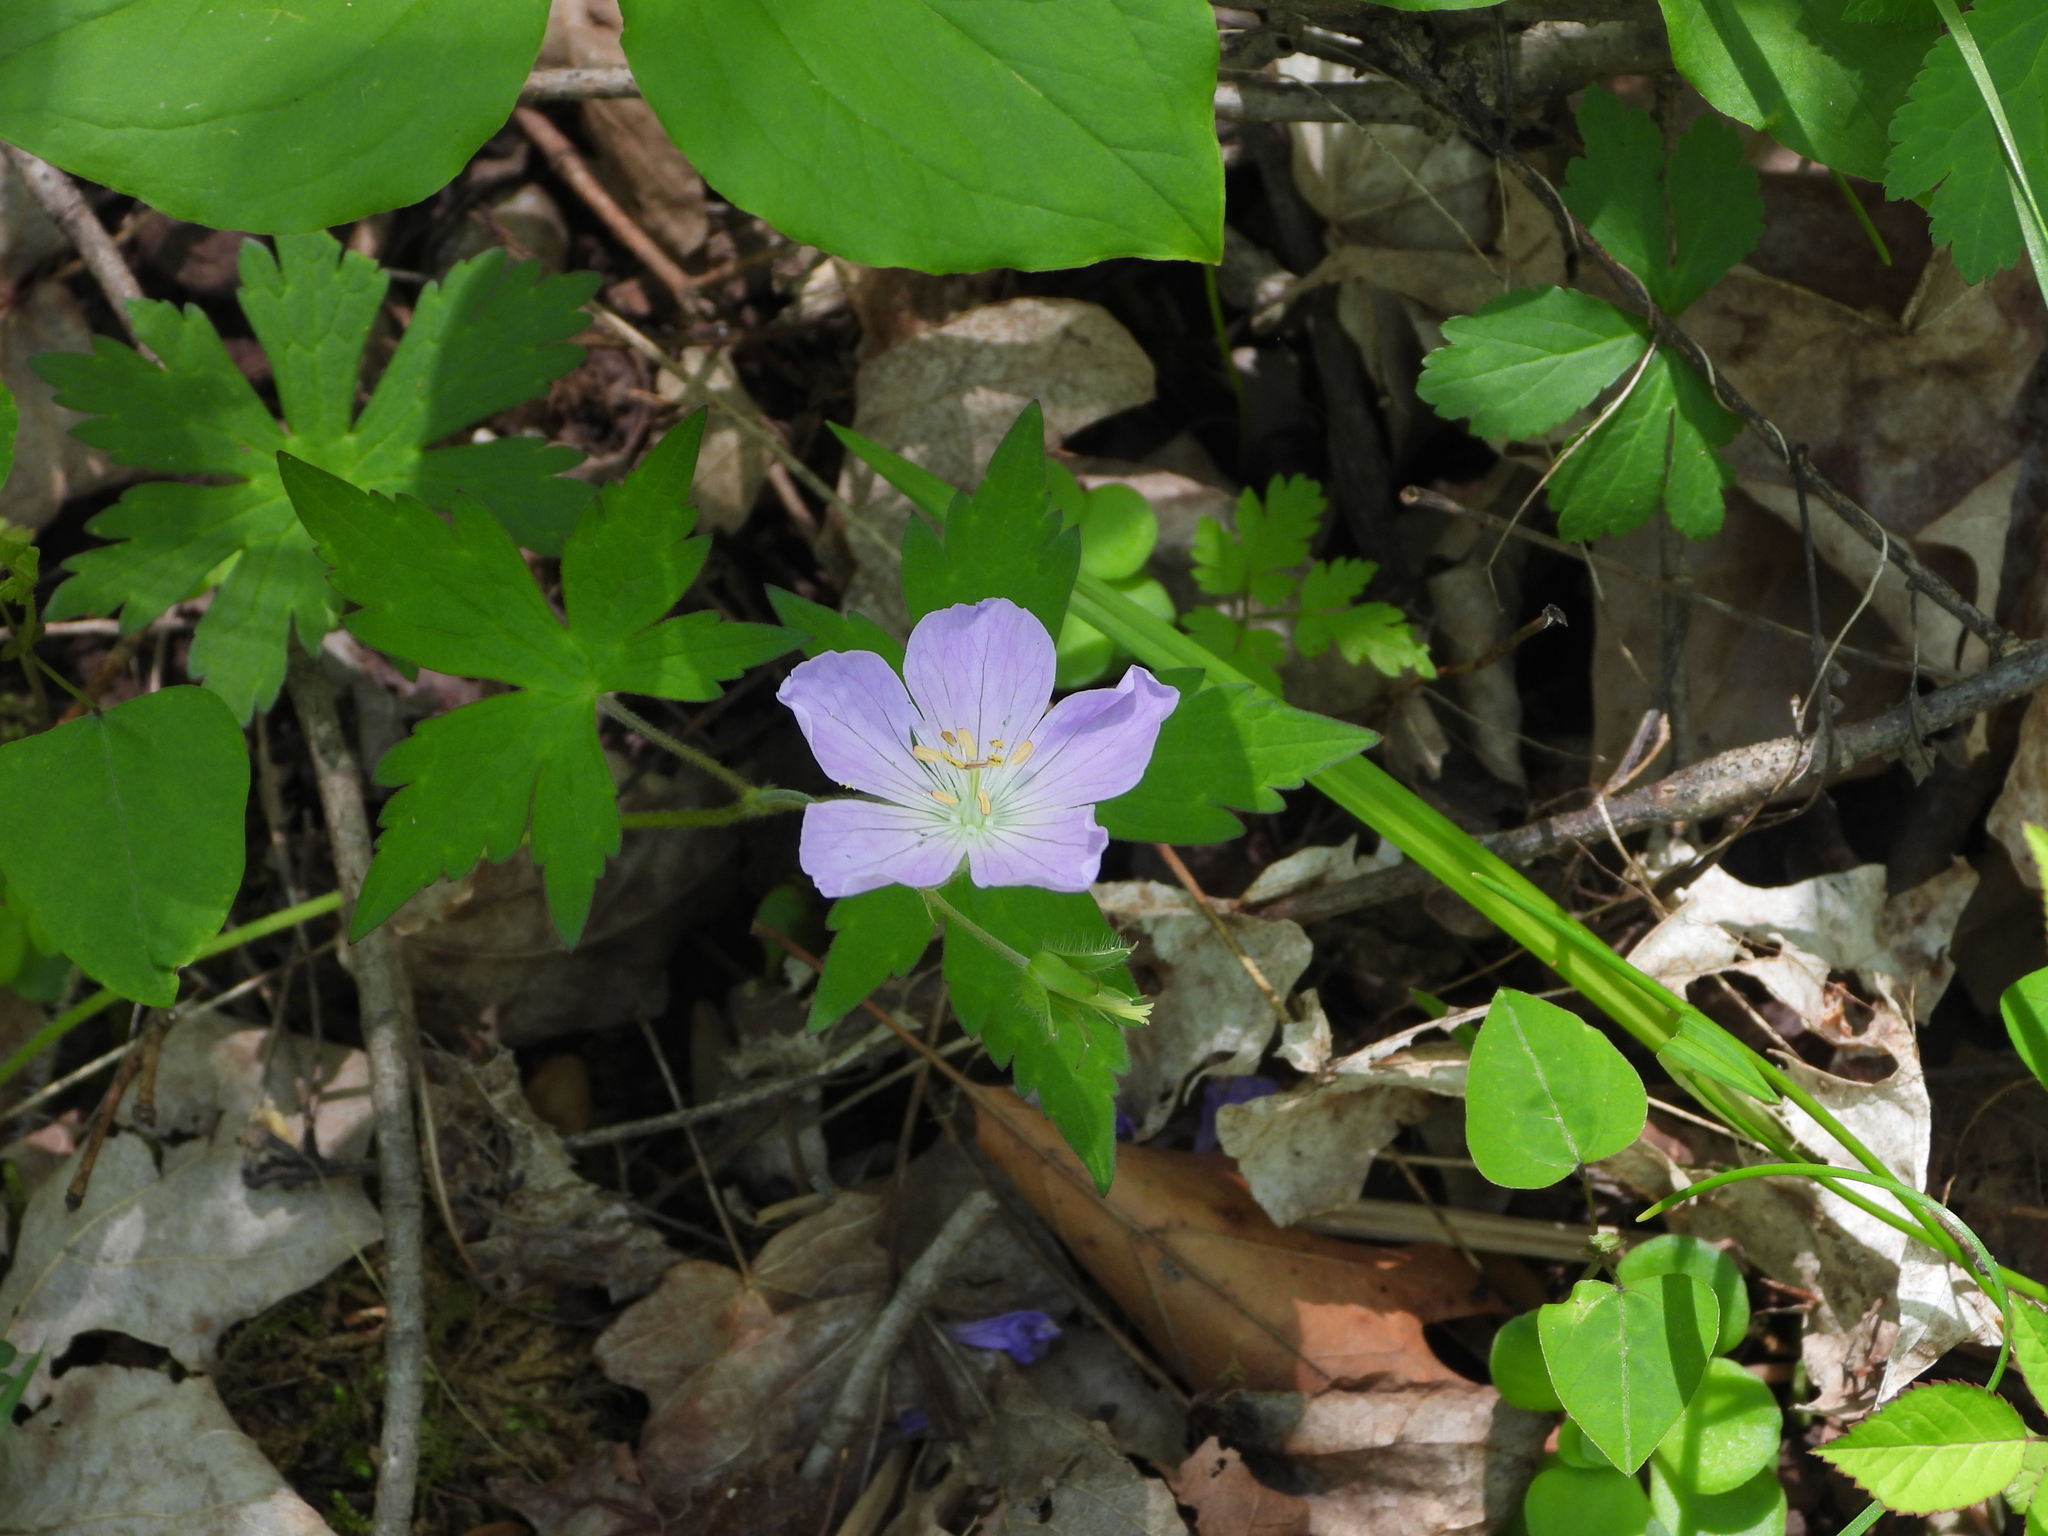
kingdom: Plantae
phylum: Tracheophyta
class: Magnoliopsida
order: Geraniales
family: Geraniaceae
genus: Geranium
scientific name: Geranium maculatum
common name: Spotted geranium
